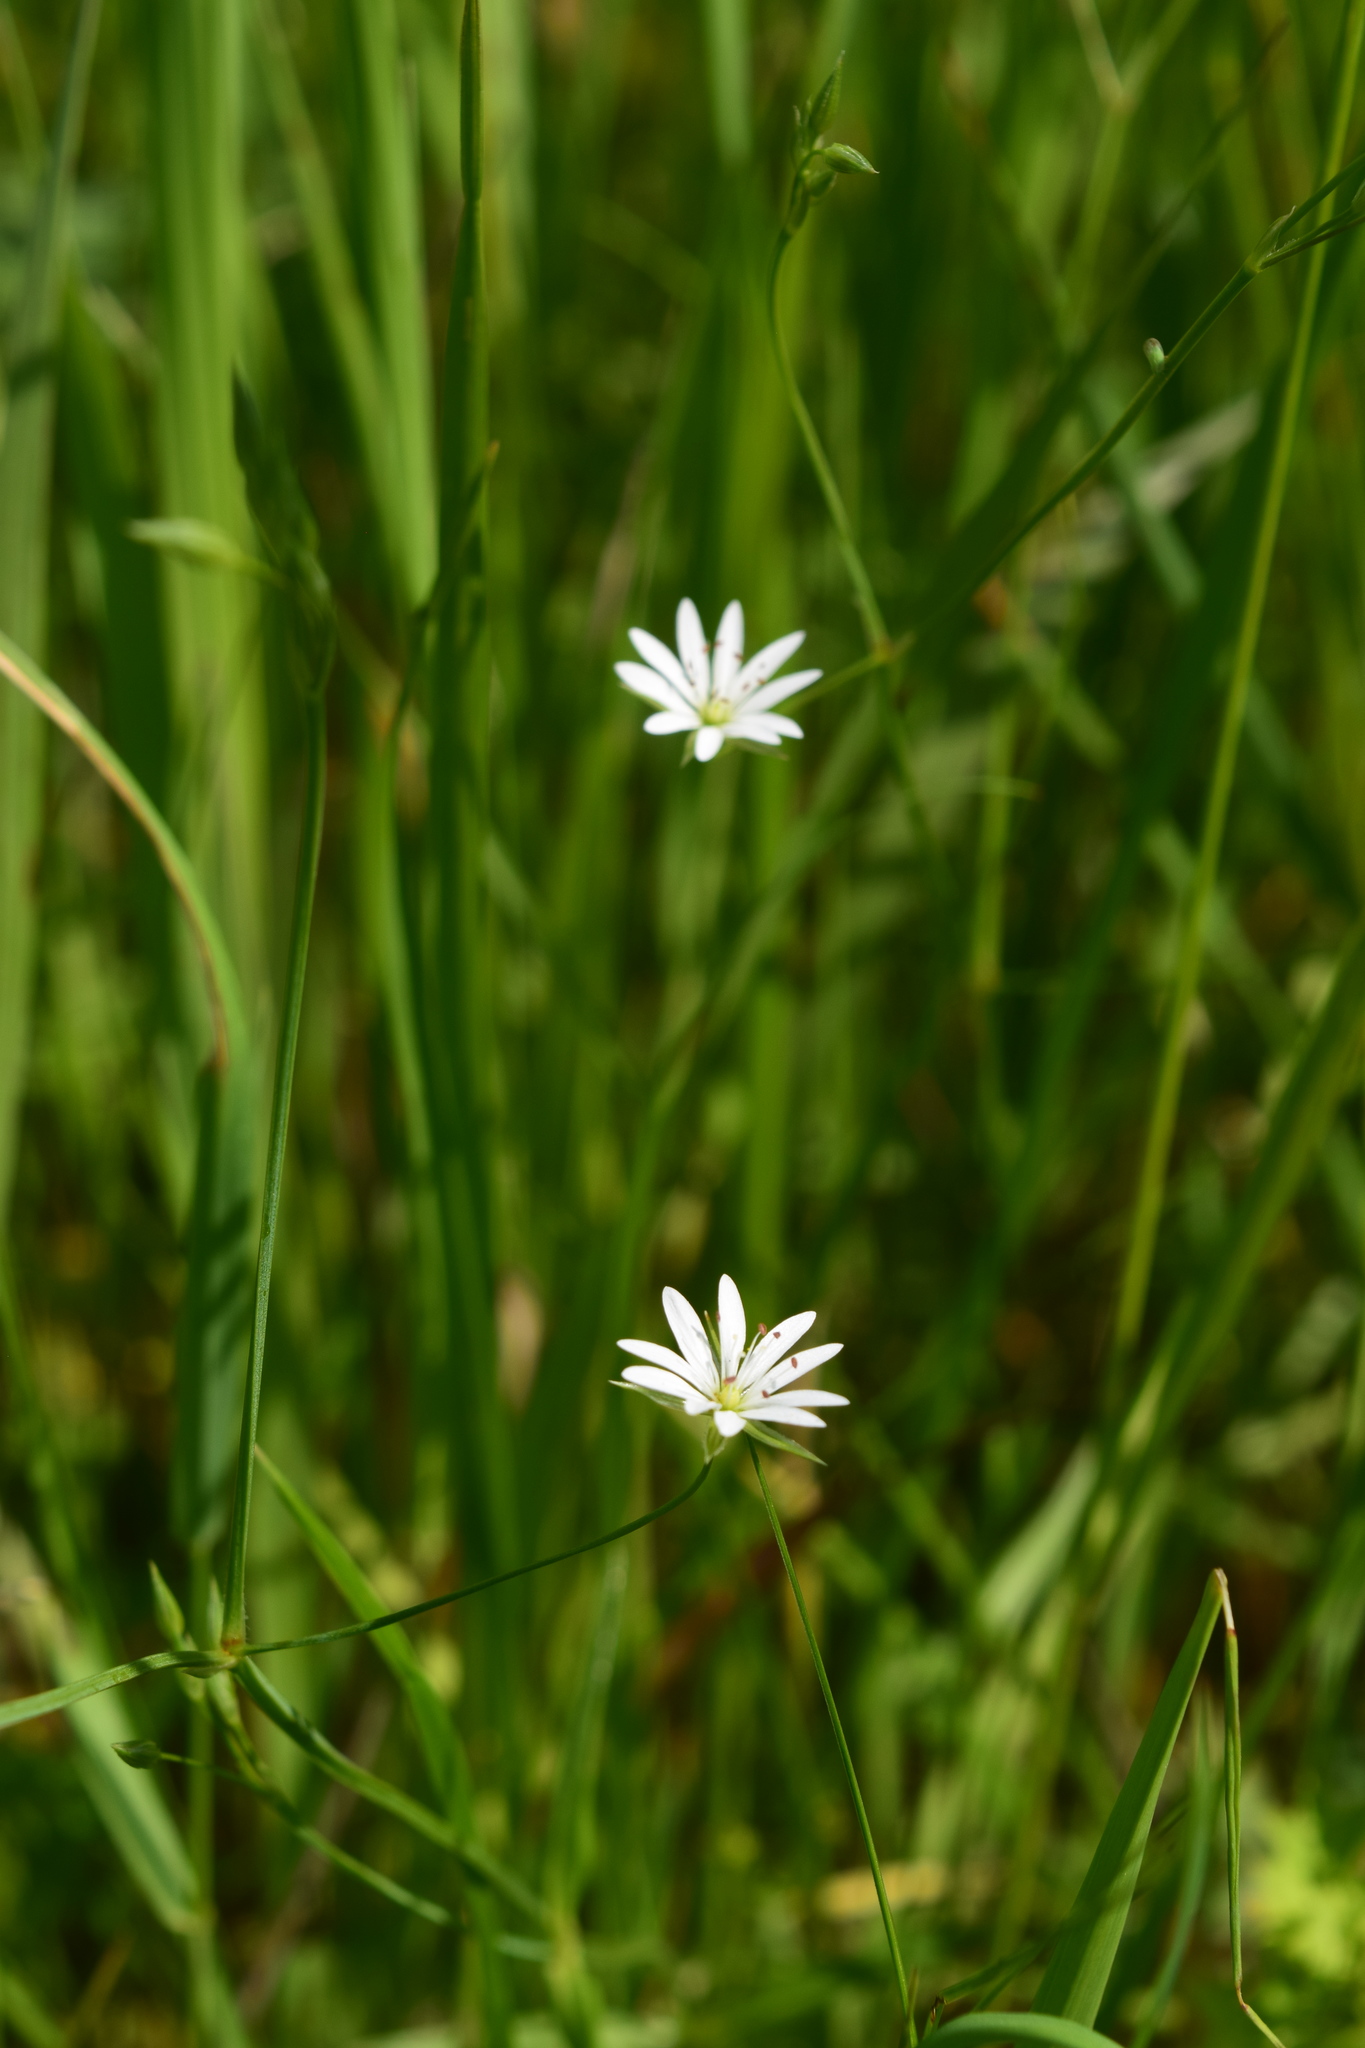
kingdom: Plantae
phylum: Tracheophyta
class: Magnoliopsida
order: Caryophyllales
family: Caryophyllaceae
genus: Stellaria
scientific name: Stellaria graminea
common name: Grass-like starwort
